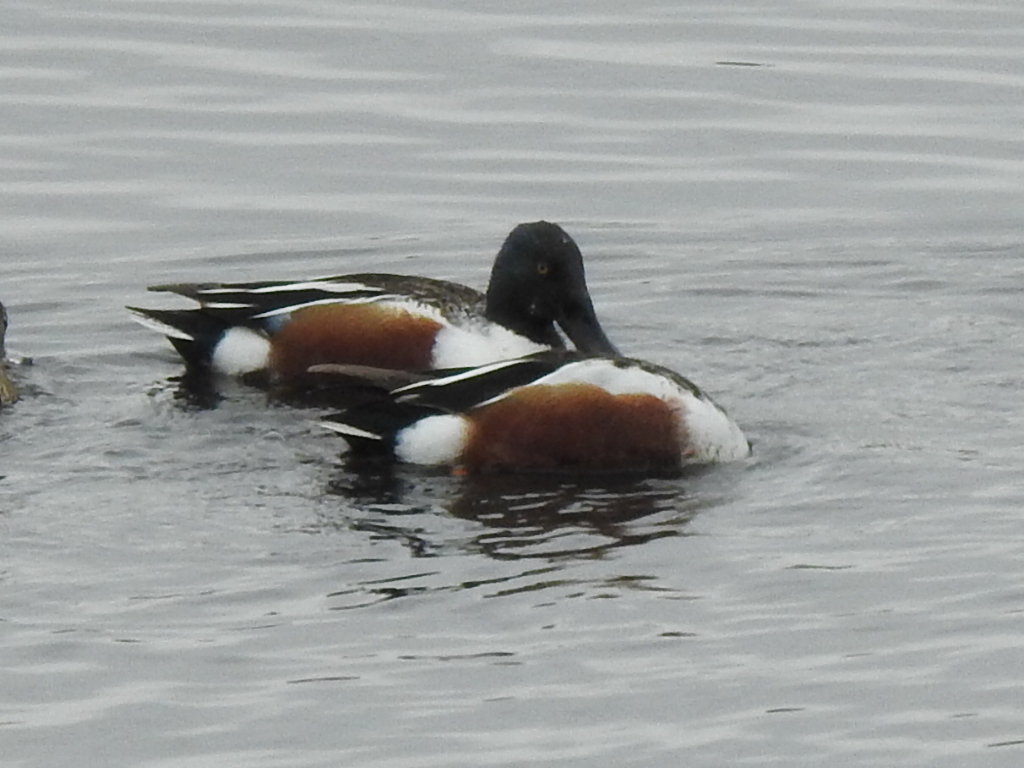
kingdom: Animalia
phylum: Chordata
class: Aves
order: Anseriformes
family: Anatidae
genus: Spatula
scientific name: Spatula clypeata
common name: Northern shoveler
